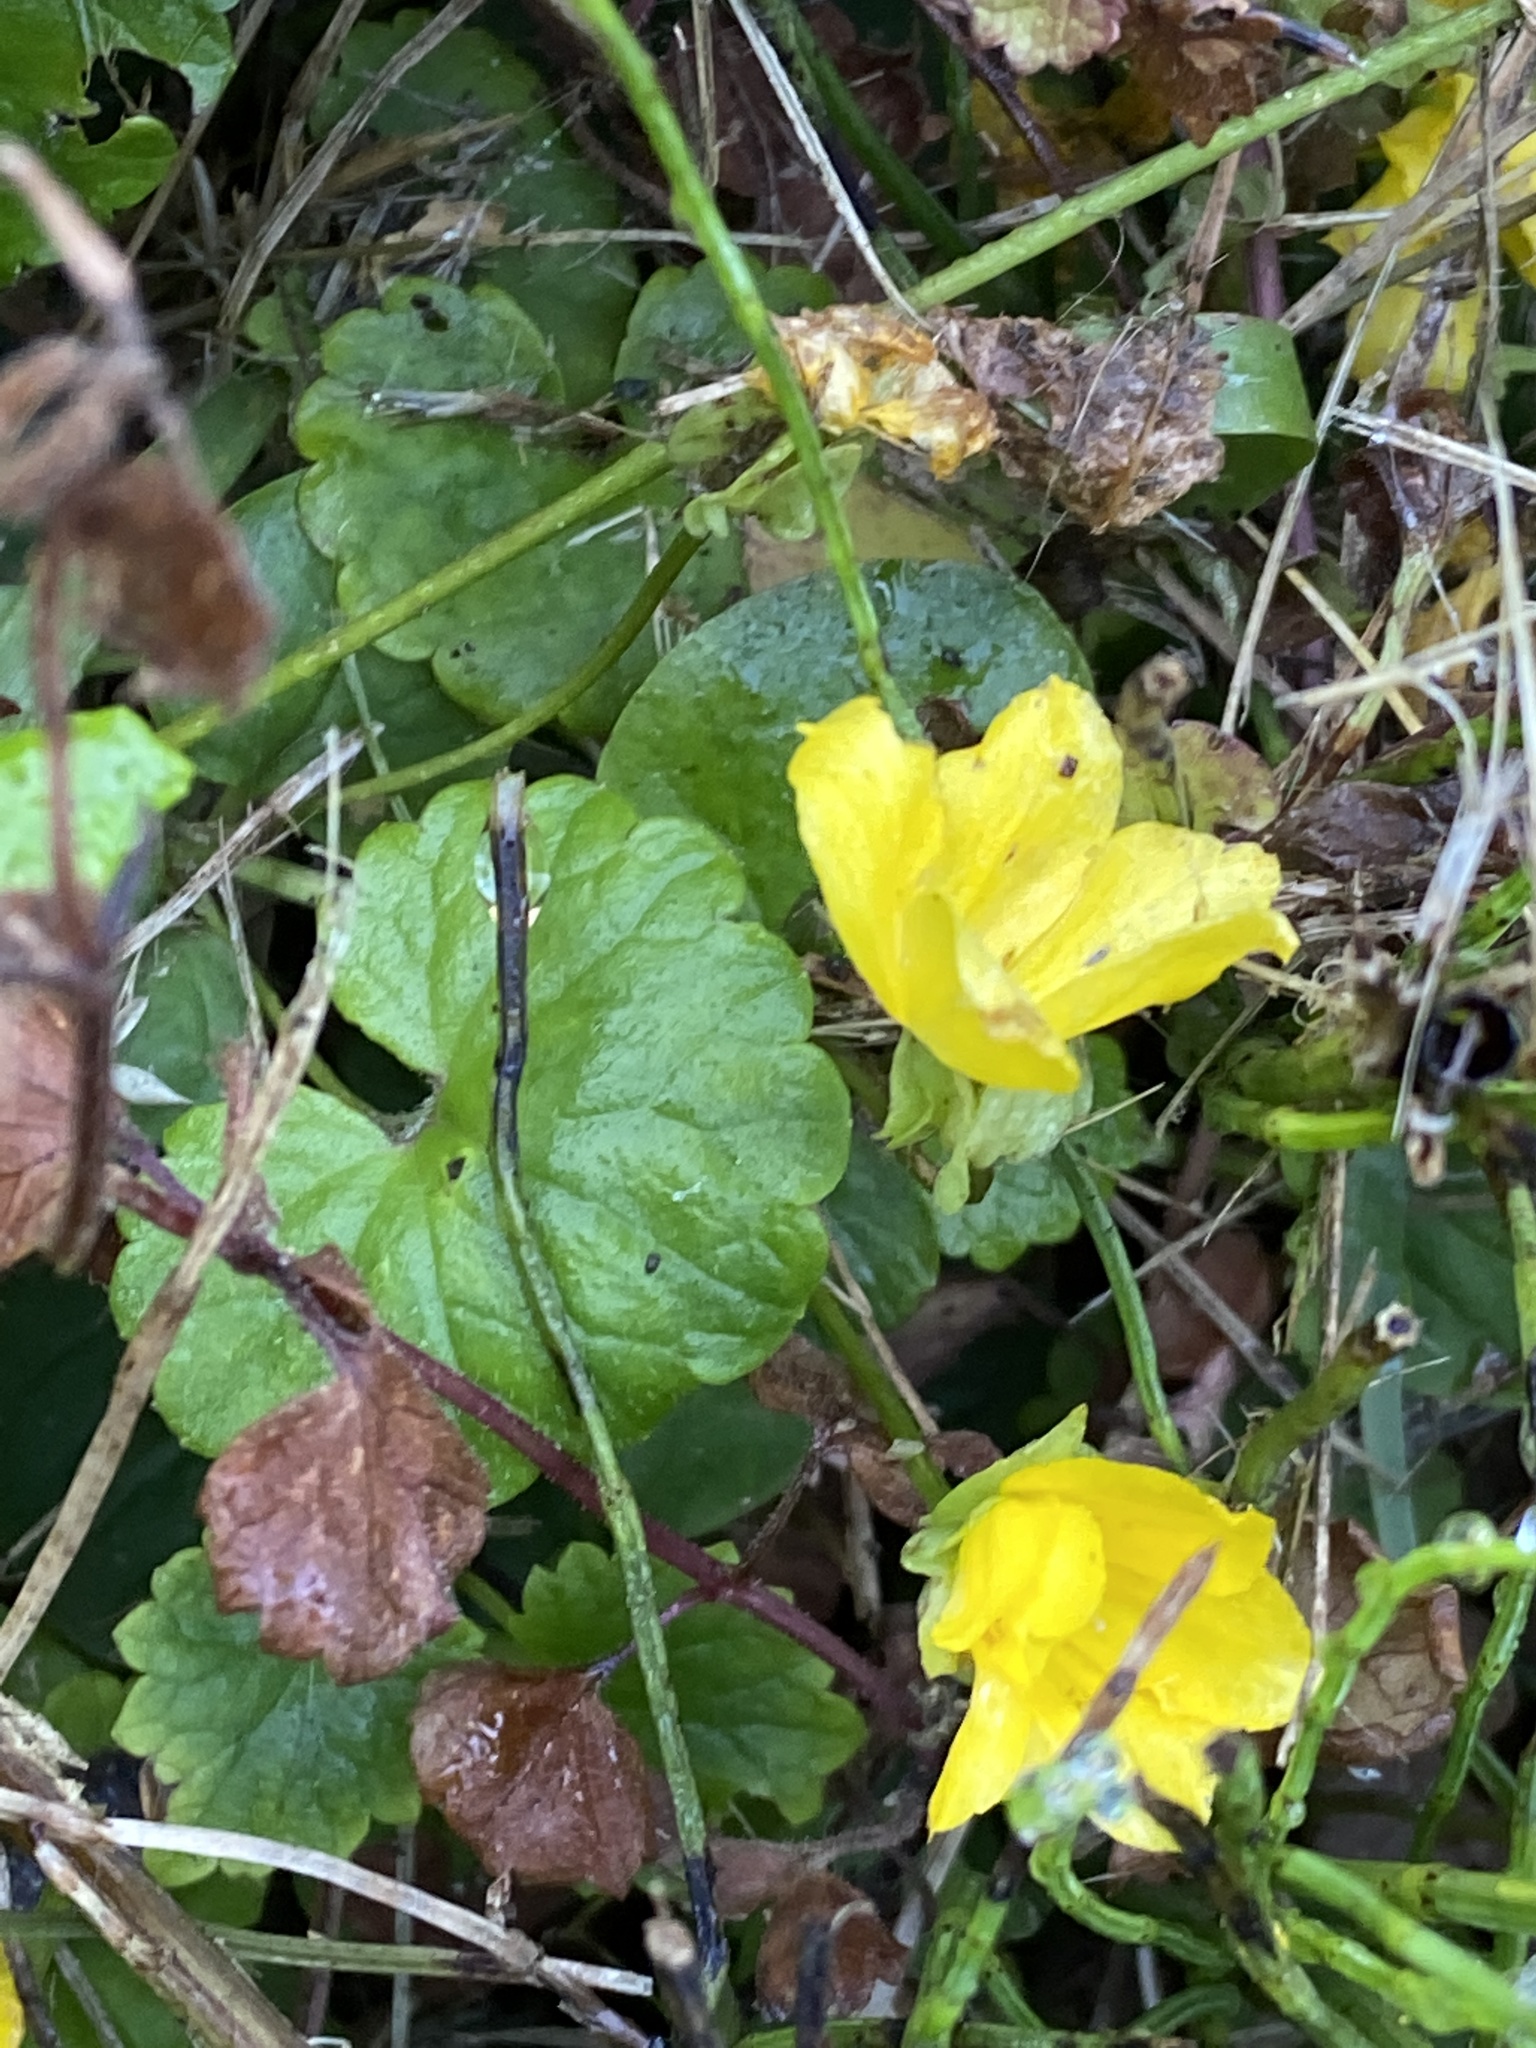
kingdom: Plantae
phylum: Tracheophyta
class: Magnoliopsida
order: Ericales
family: Primulaceae
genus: Lysimachia
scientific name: Lysimachia nummularia
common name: Moneywort
